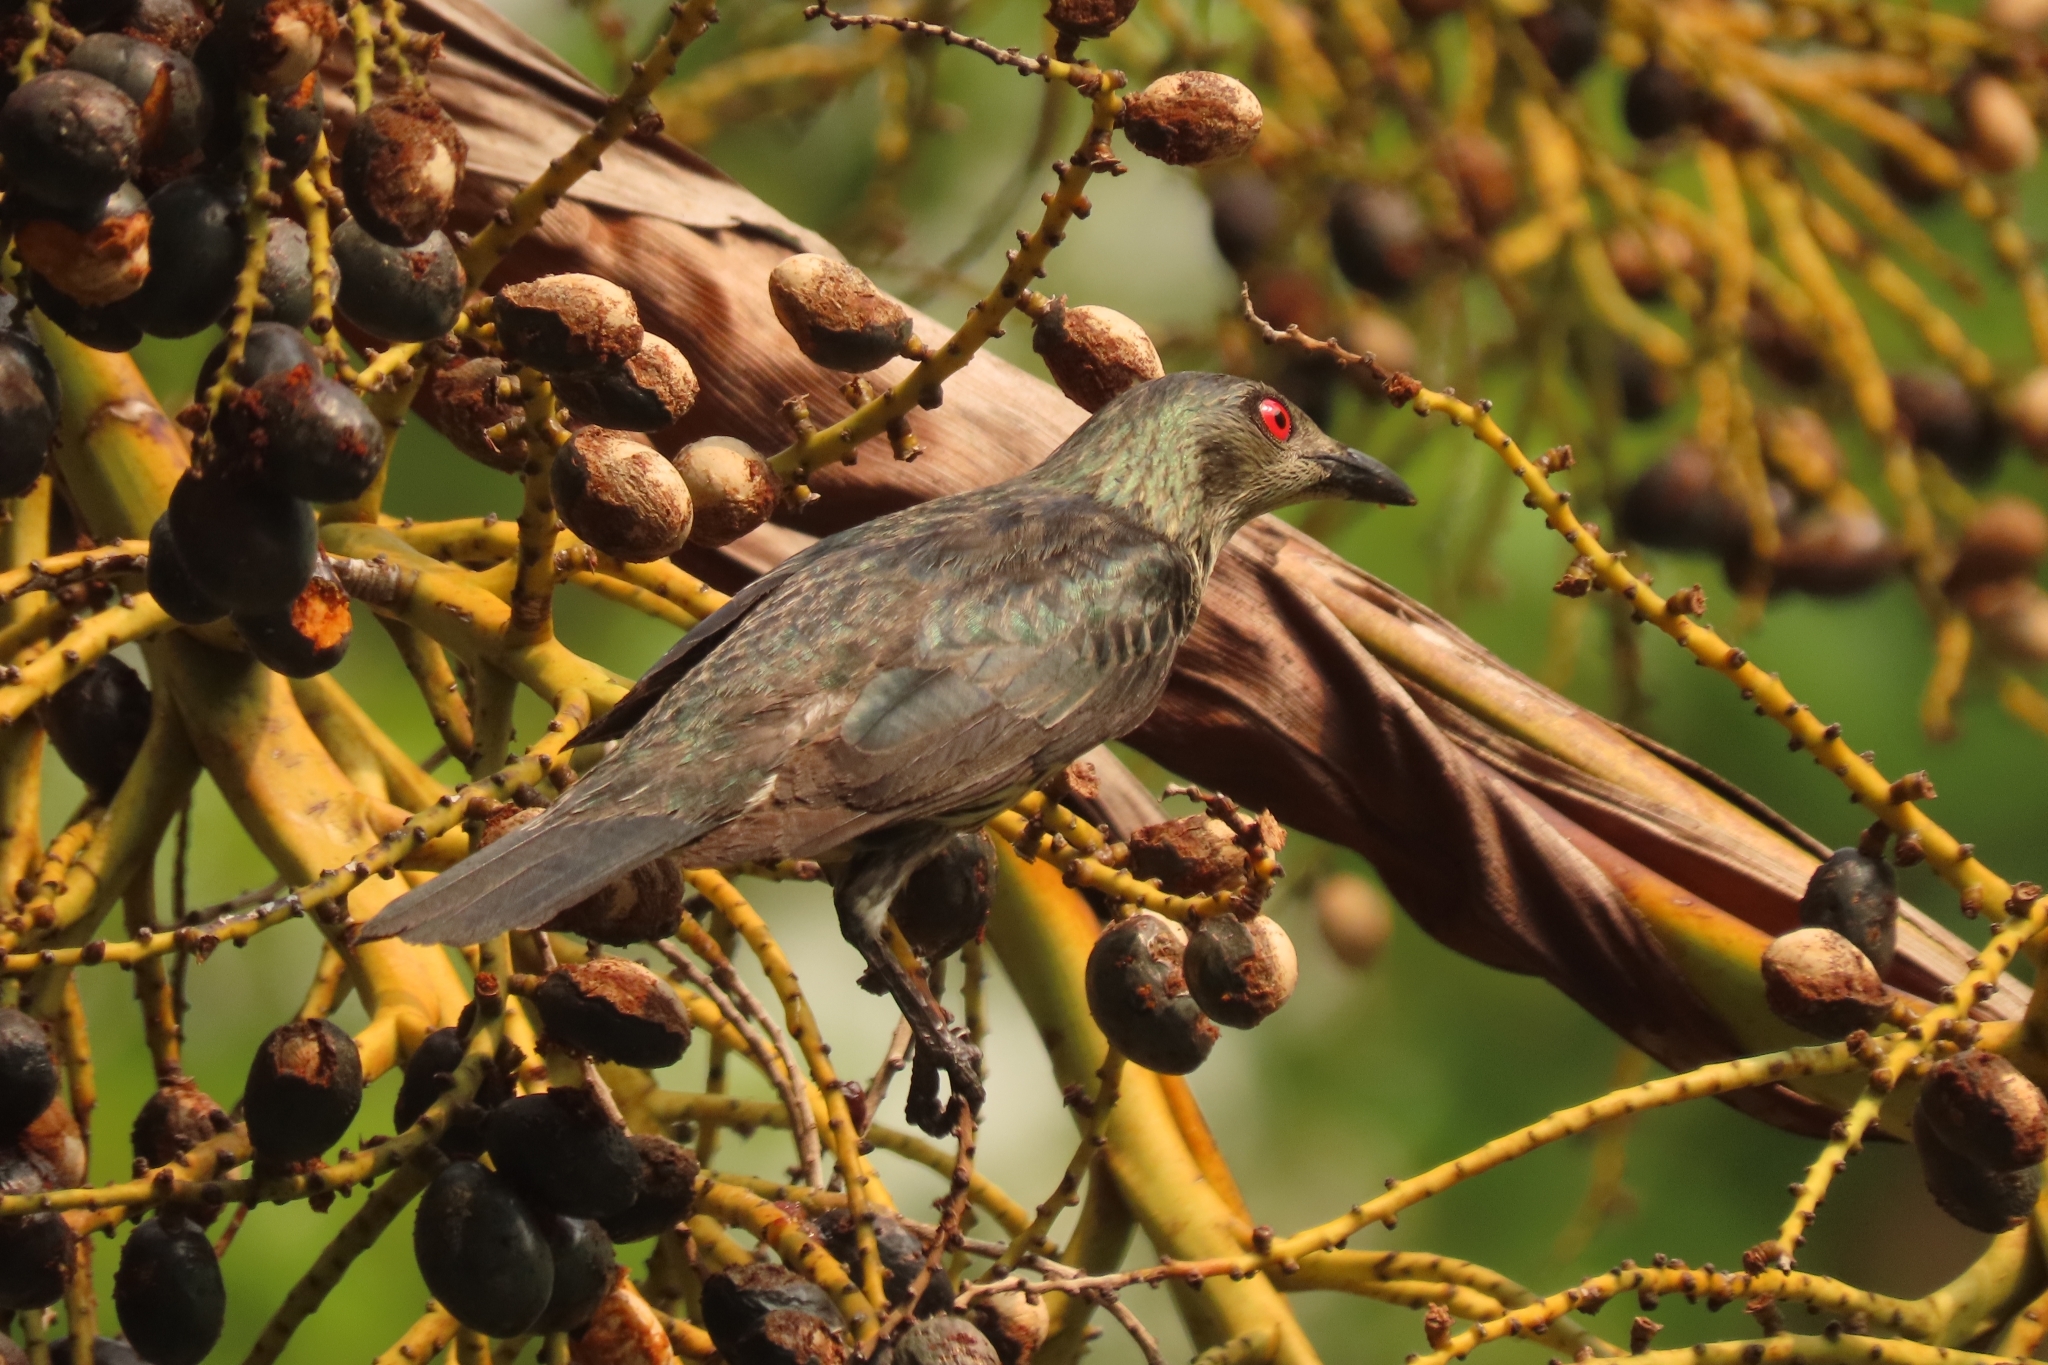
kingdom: Animalia
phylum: Chordata
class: Aves
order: Passeriformes
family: Sturnidae
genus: Aplonis
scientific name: Aplonis panayensis
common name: Asian glossy starling
